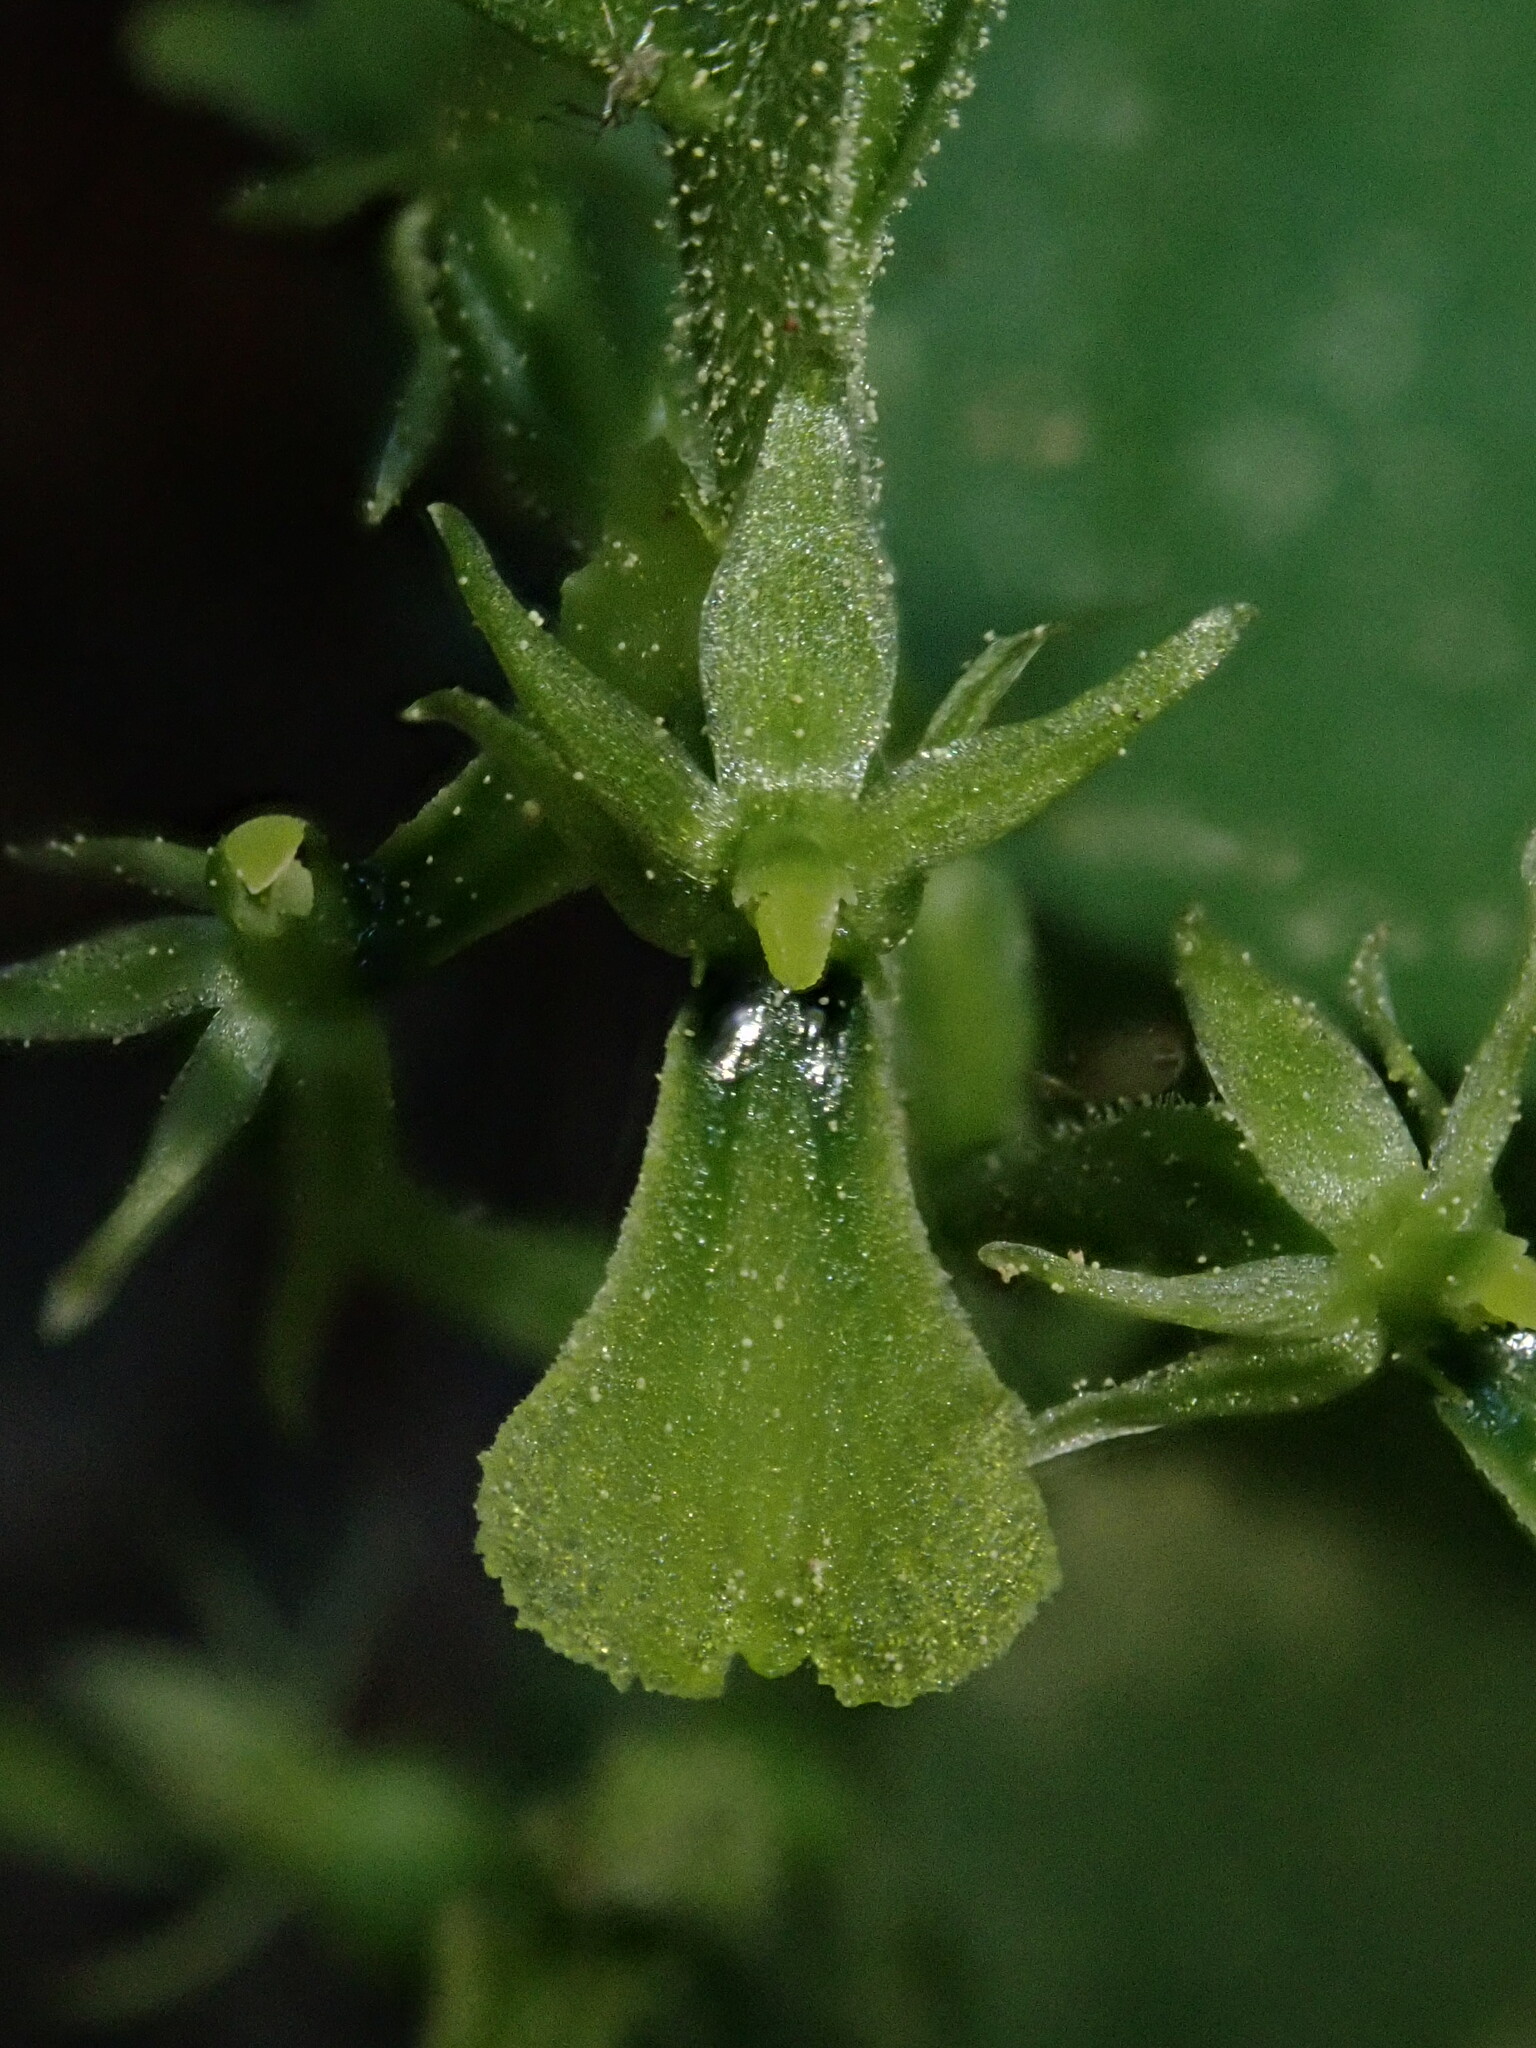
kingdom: Plantae
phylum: Tracheophyta
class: Liliopsida
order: Asparagales
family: Orchidaceae
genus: Neottia
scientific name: Neottia banksiana
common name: Northwestern twayblade
